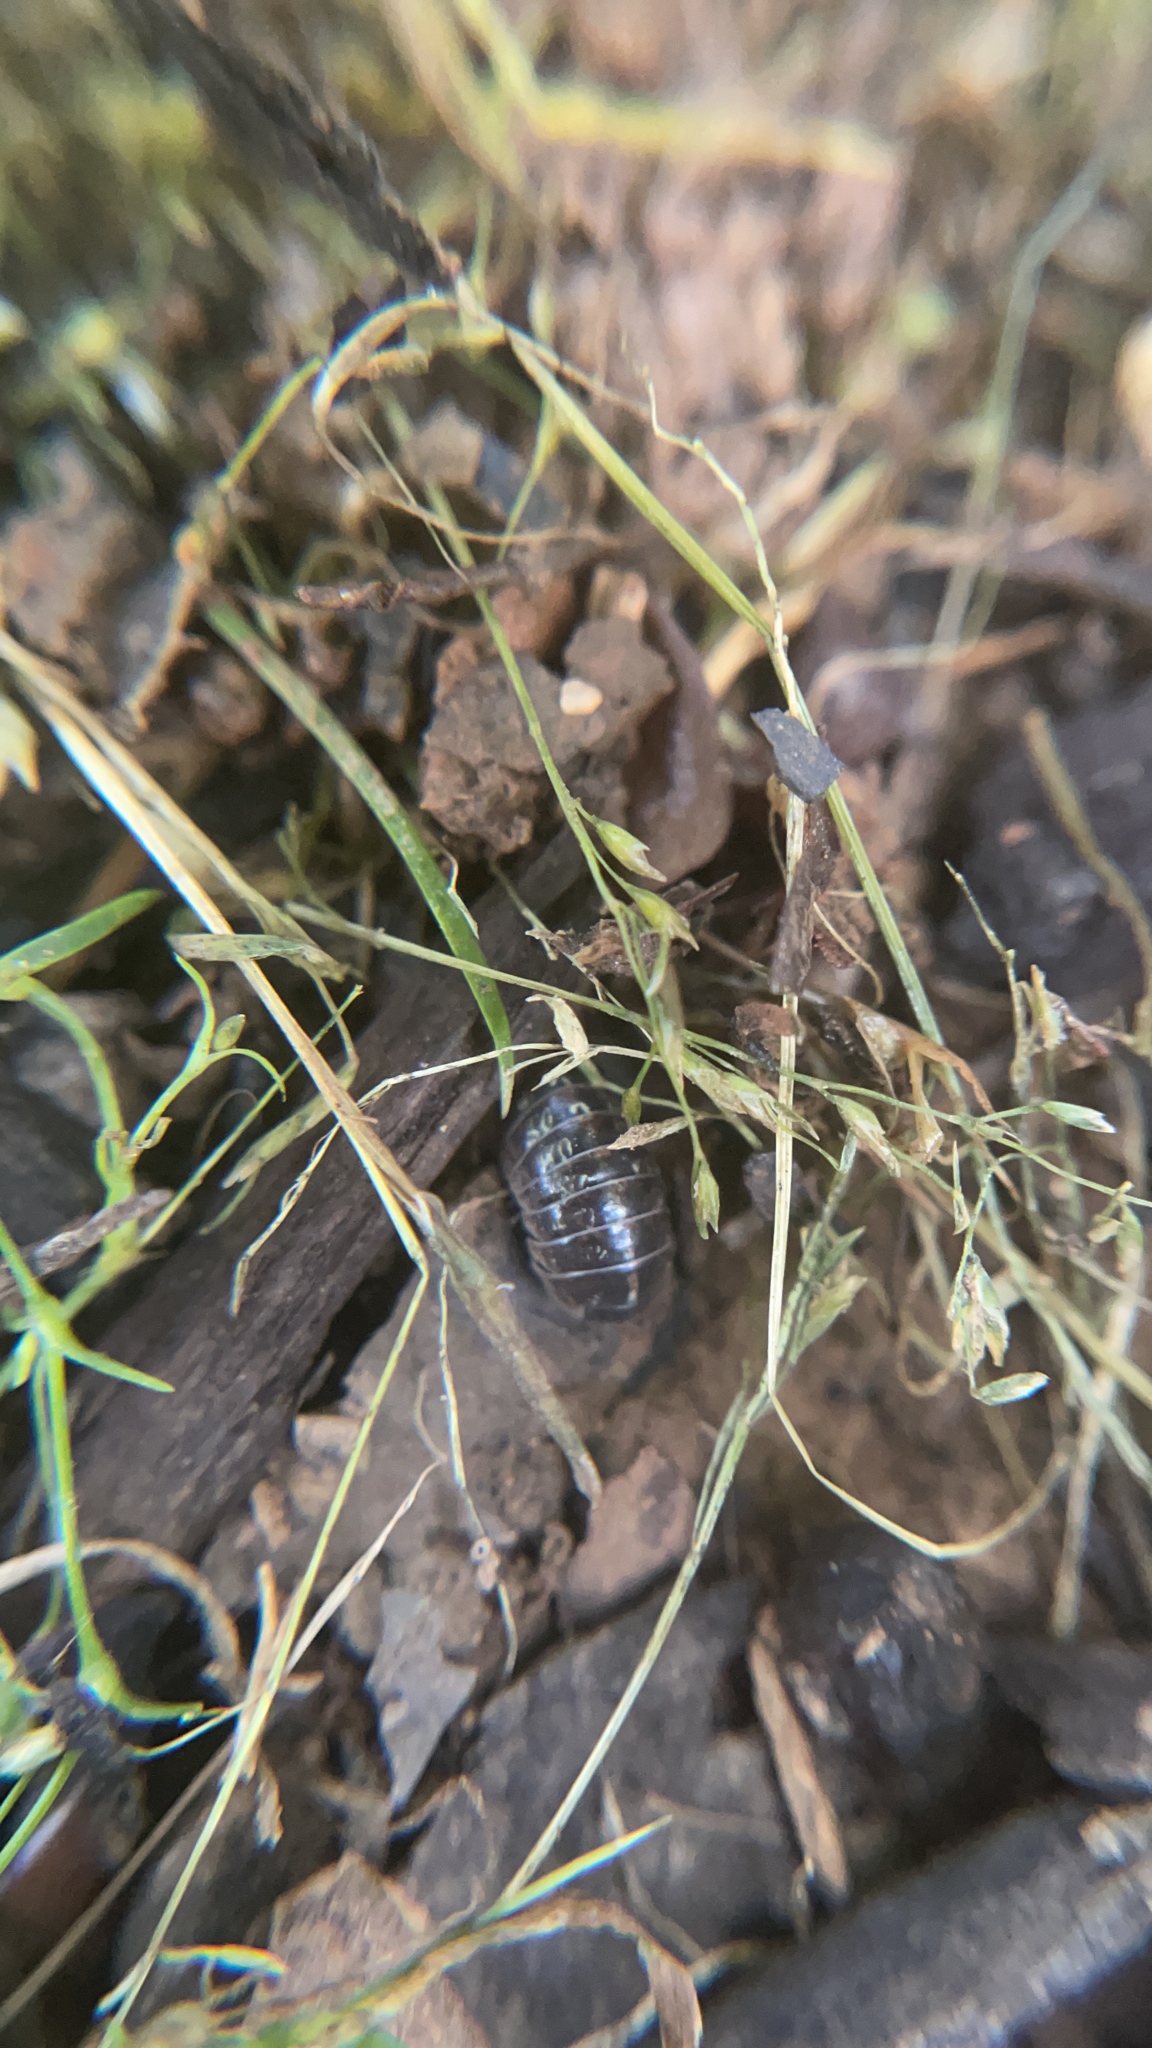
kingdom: Animalia
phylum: Arthropoda
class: Malacostraca
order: Isopoda
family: Armadillidiidae
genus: Armadillidium
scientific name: Armadillidium vulgare
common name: Common pill woodlouse
